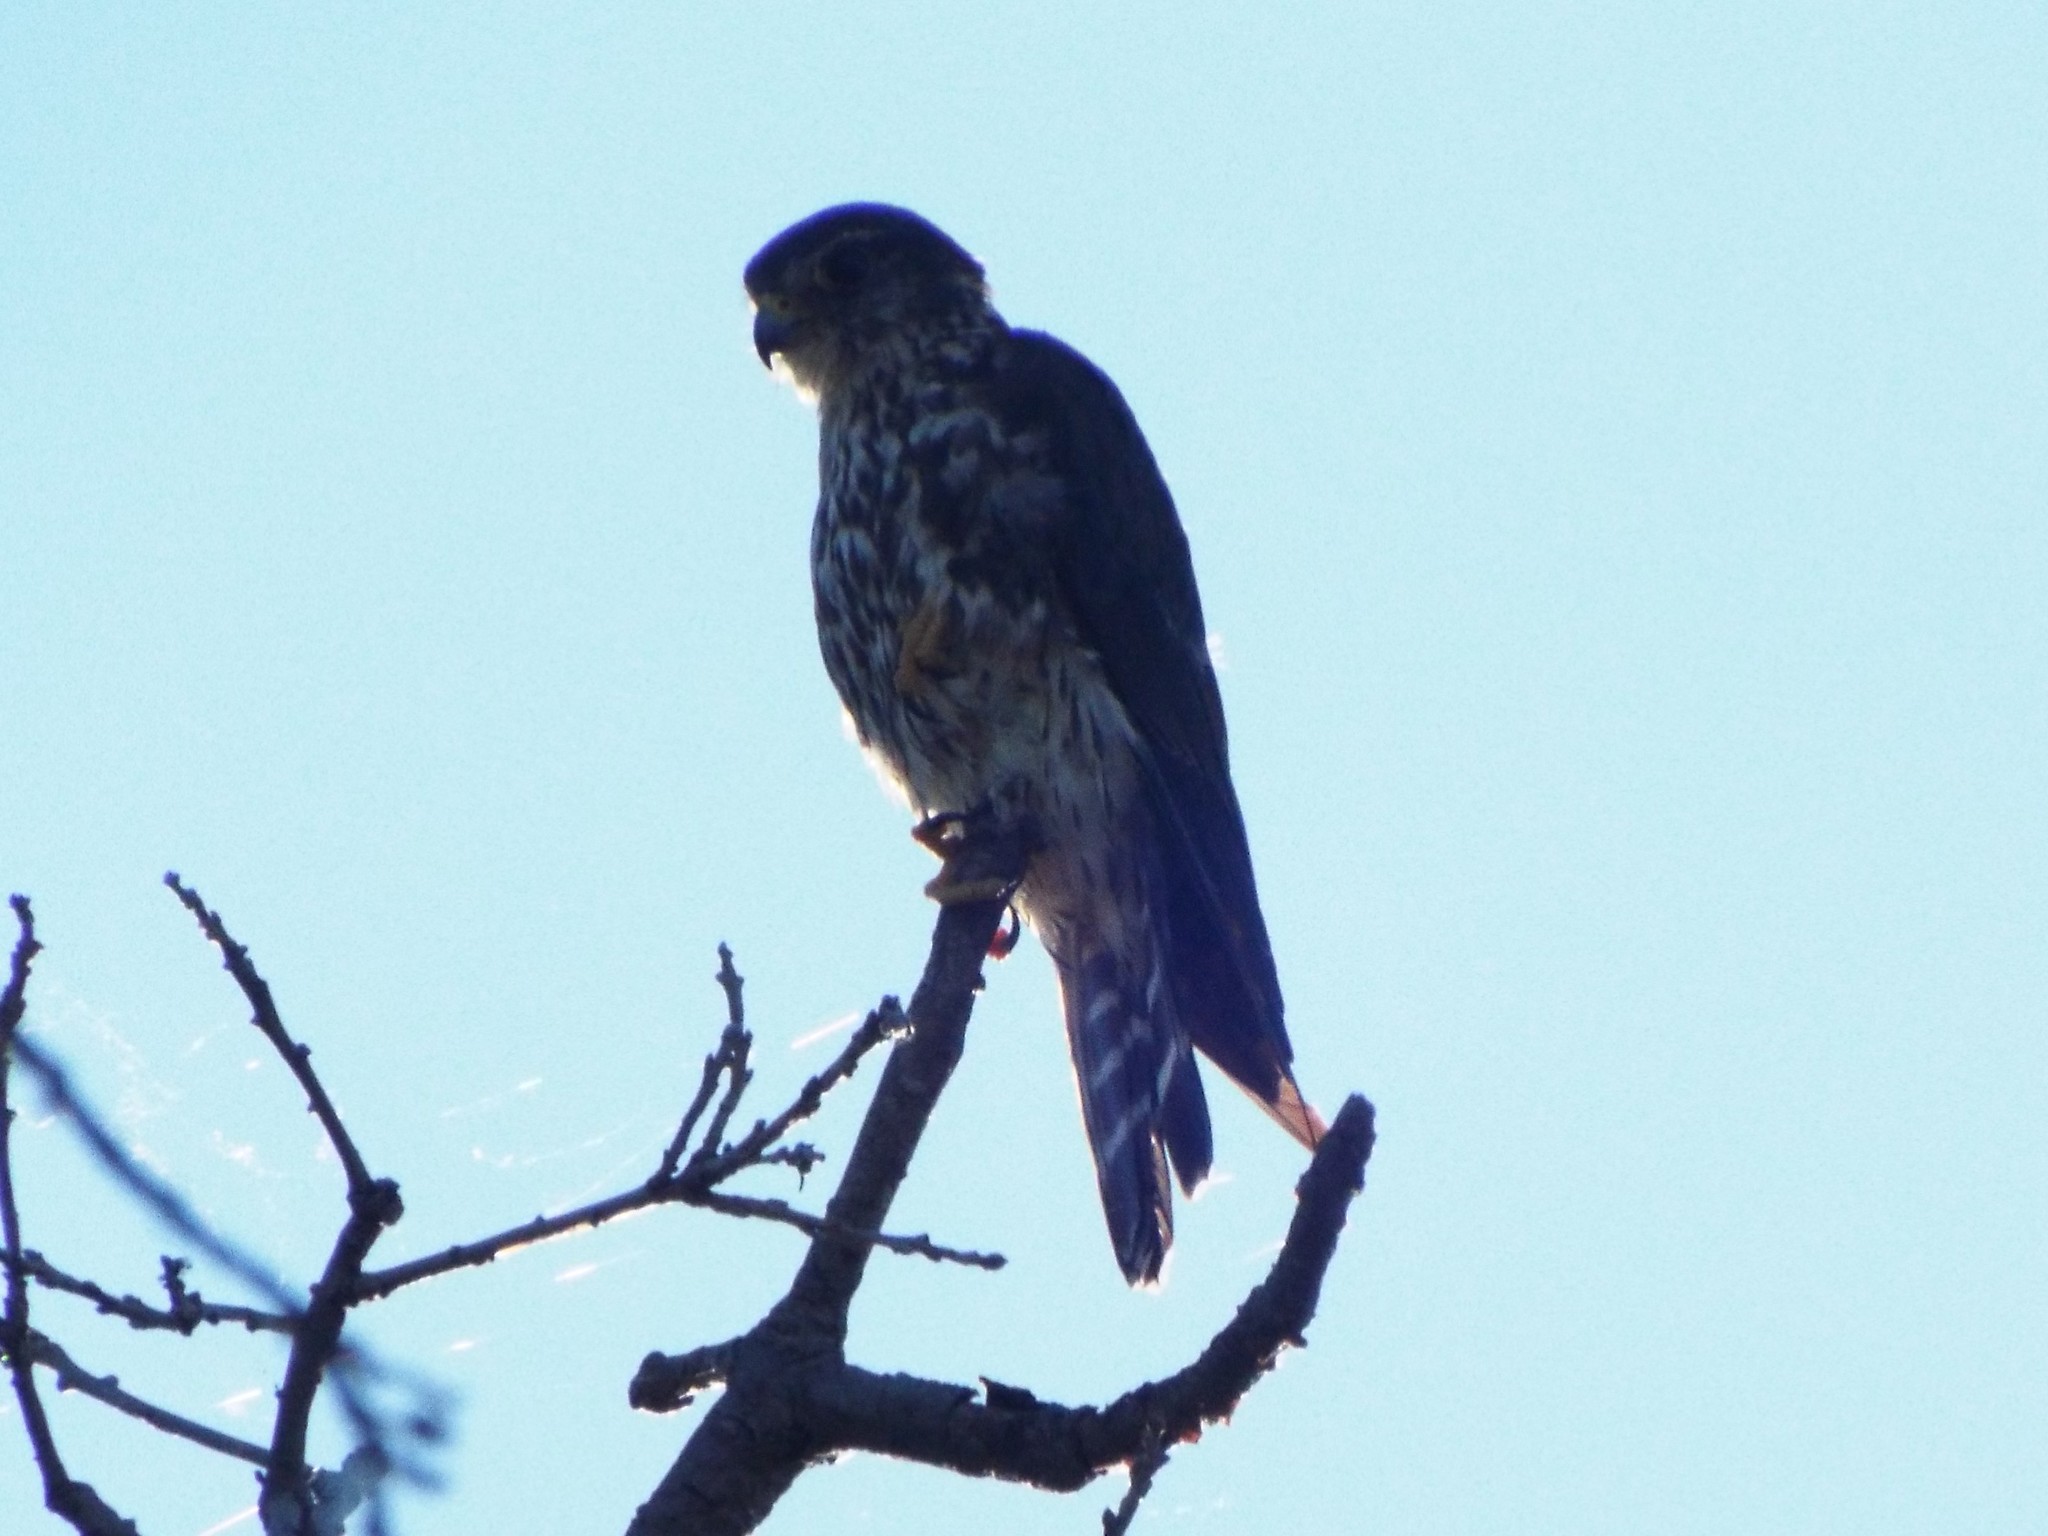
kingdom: Animalia
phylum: Chordata
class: Aves
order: Falconiformes
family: Falconidae
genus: Falco
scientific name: Falco columbarius
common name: Merlin
